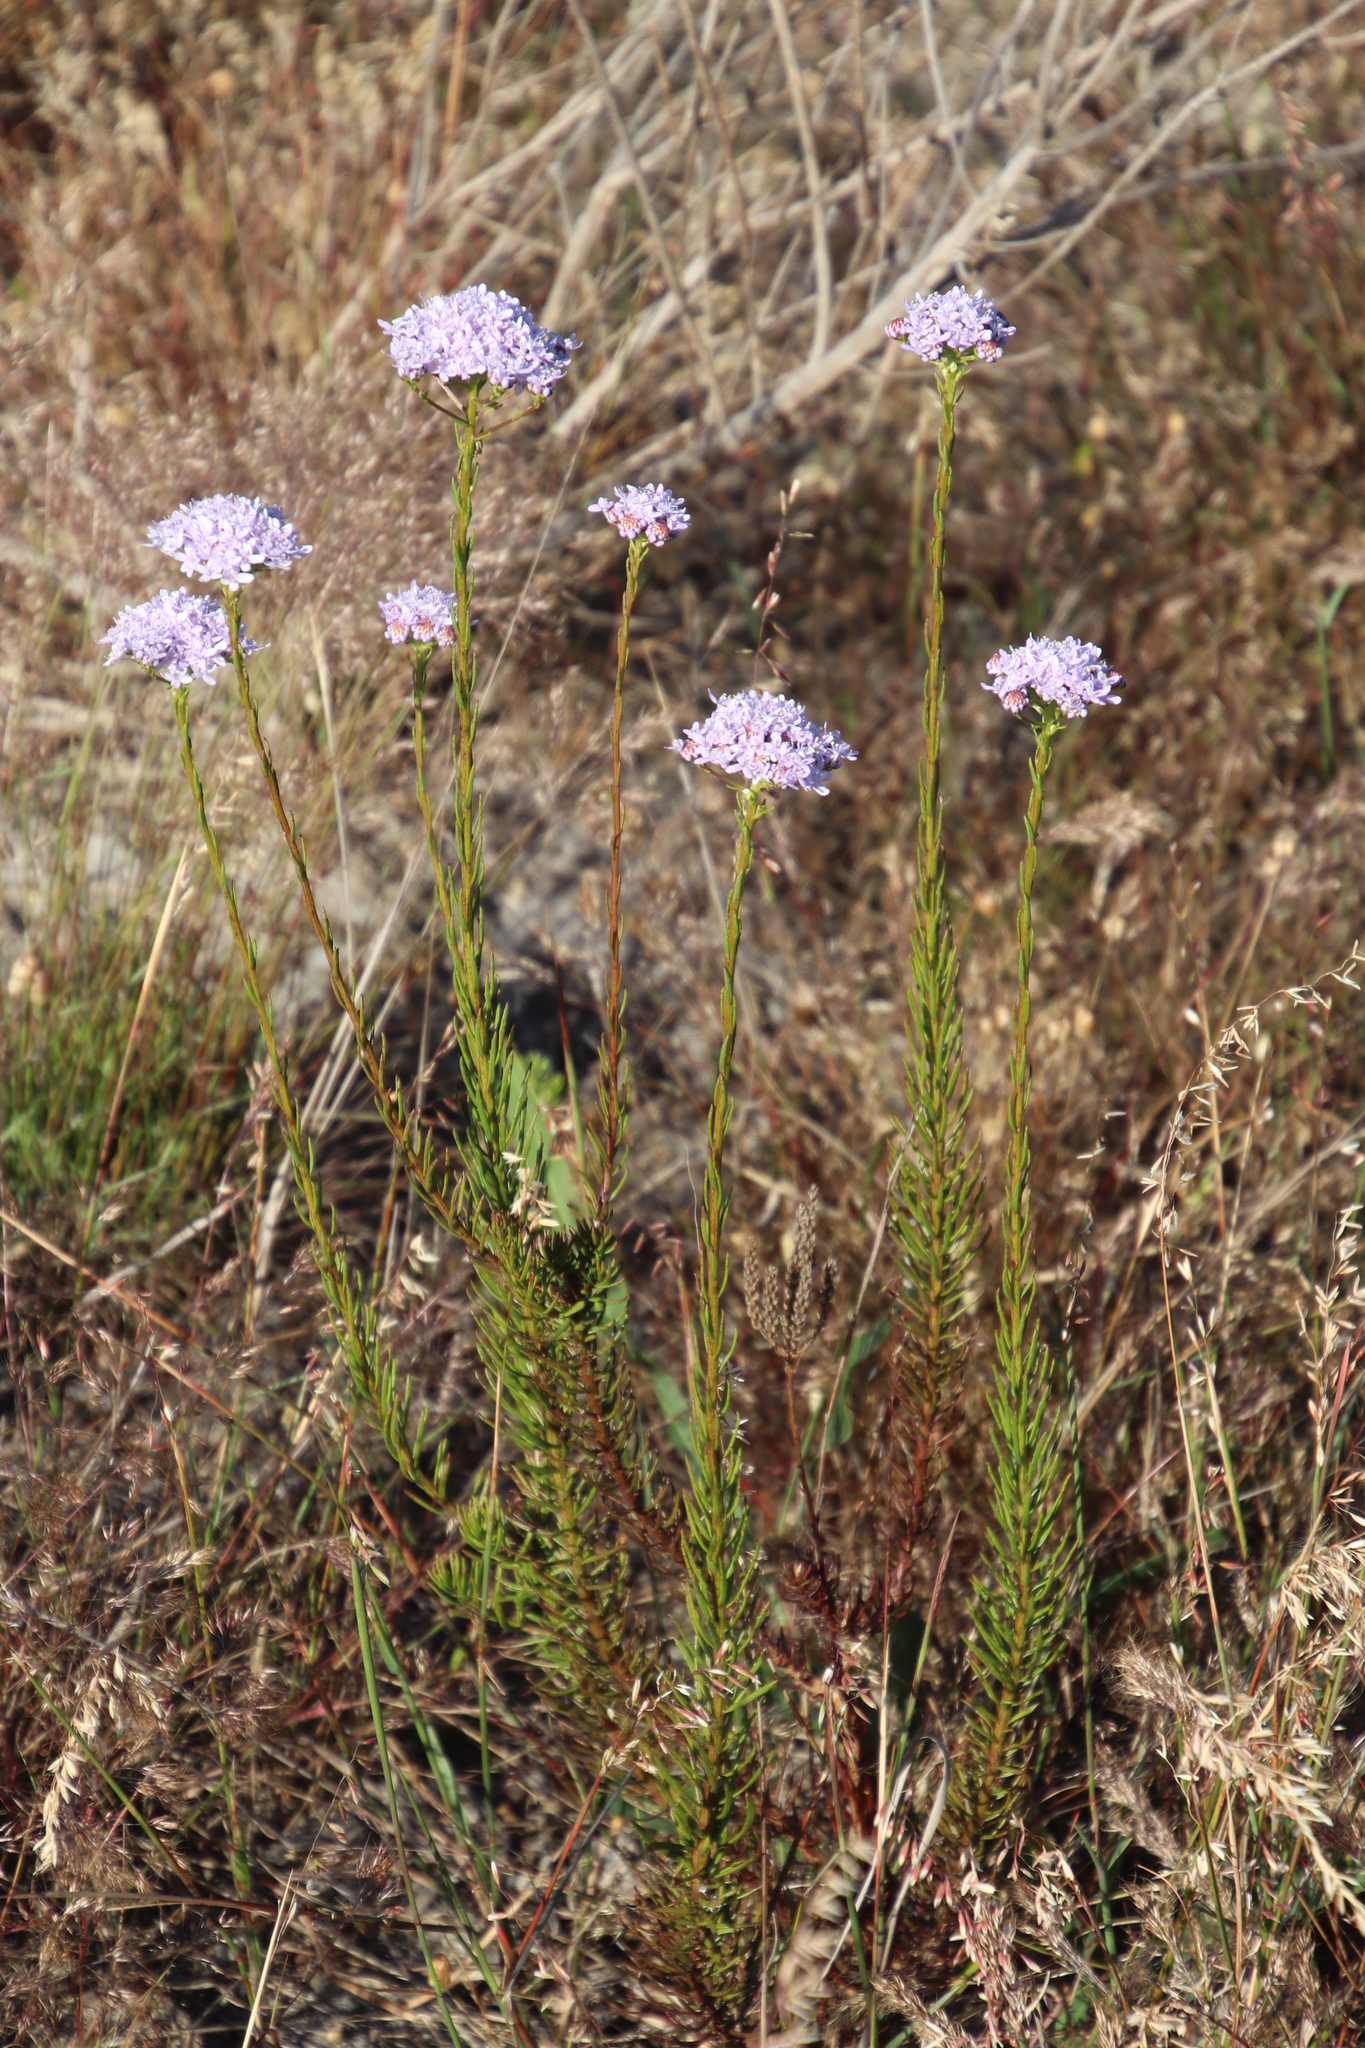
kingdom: Plantae
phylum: Tracheophyta
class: Magnoliopsida
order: Lamiales
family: Scrophulariaceae
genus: Pseudoselago
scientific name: Pseudoselago spuria
